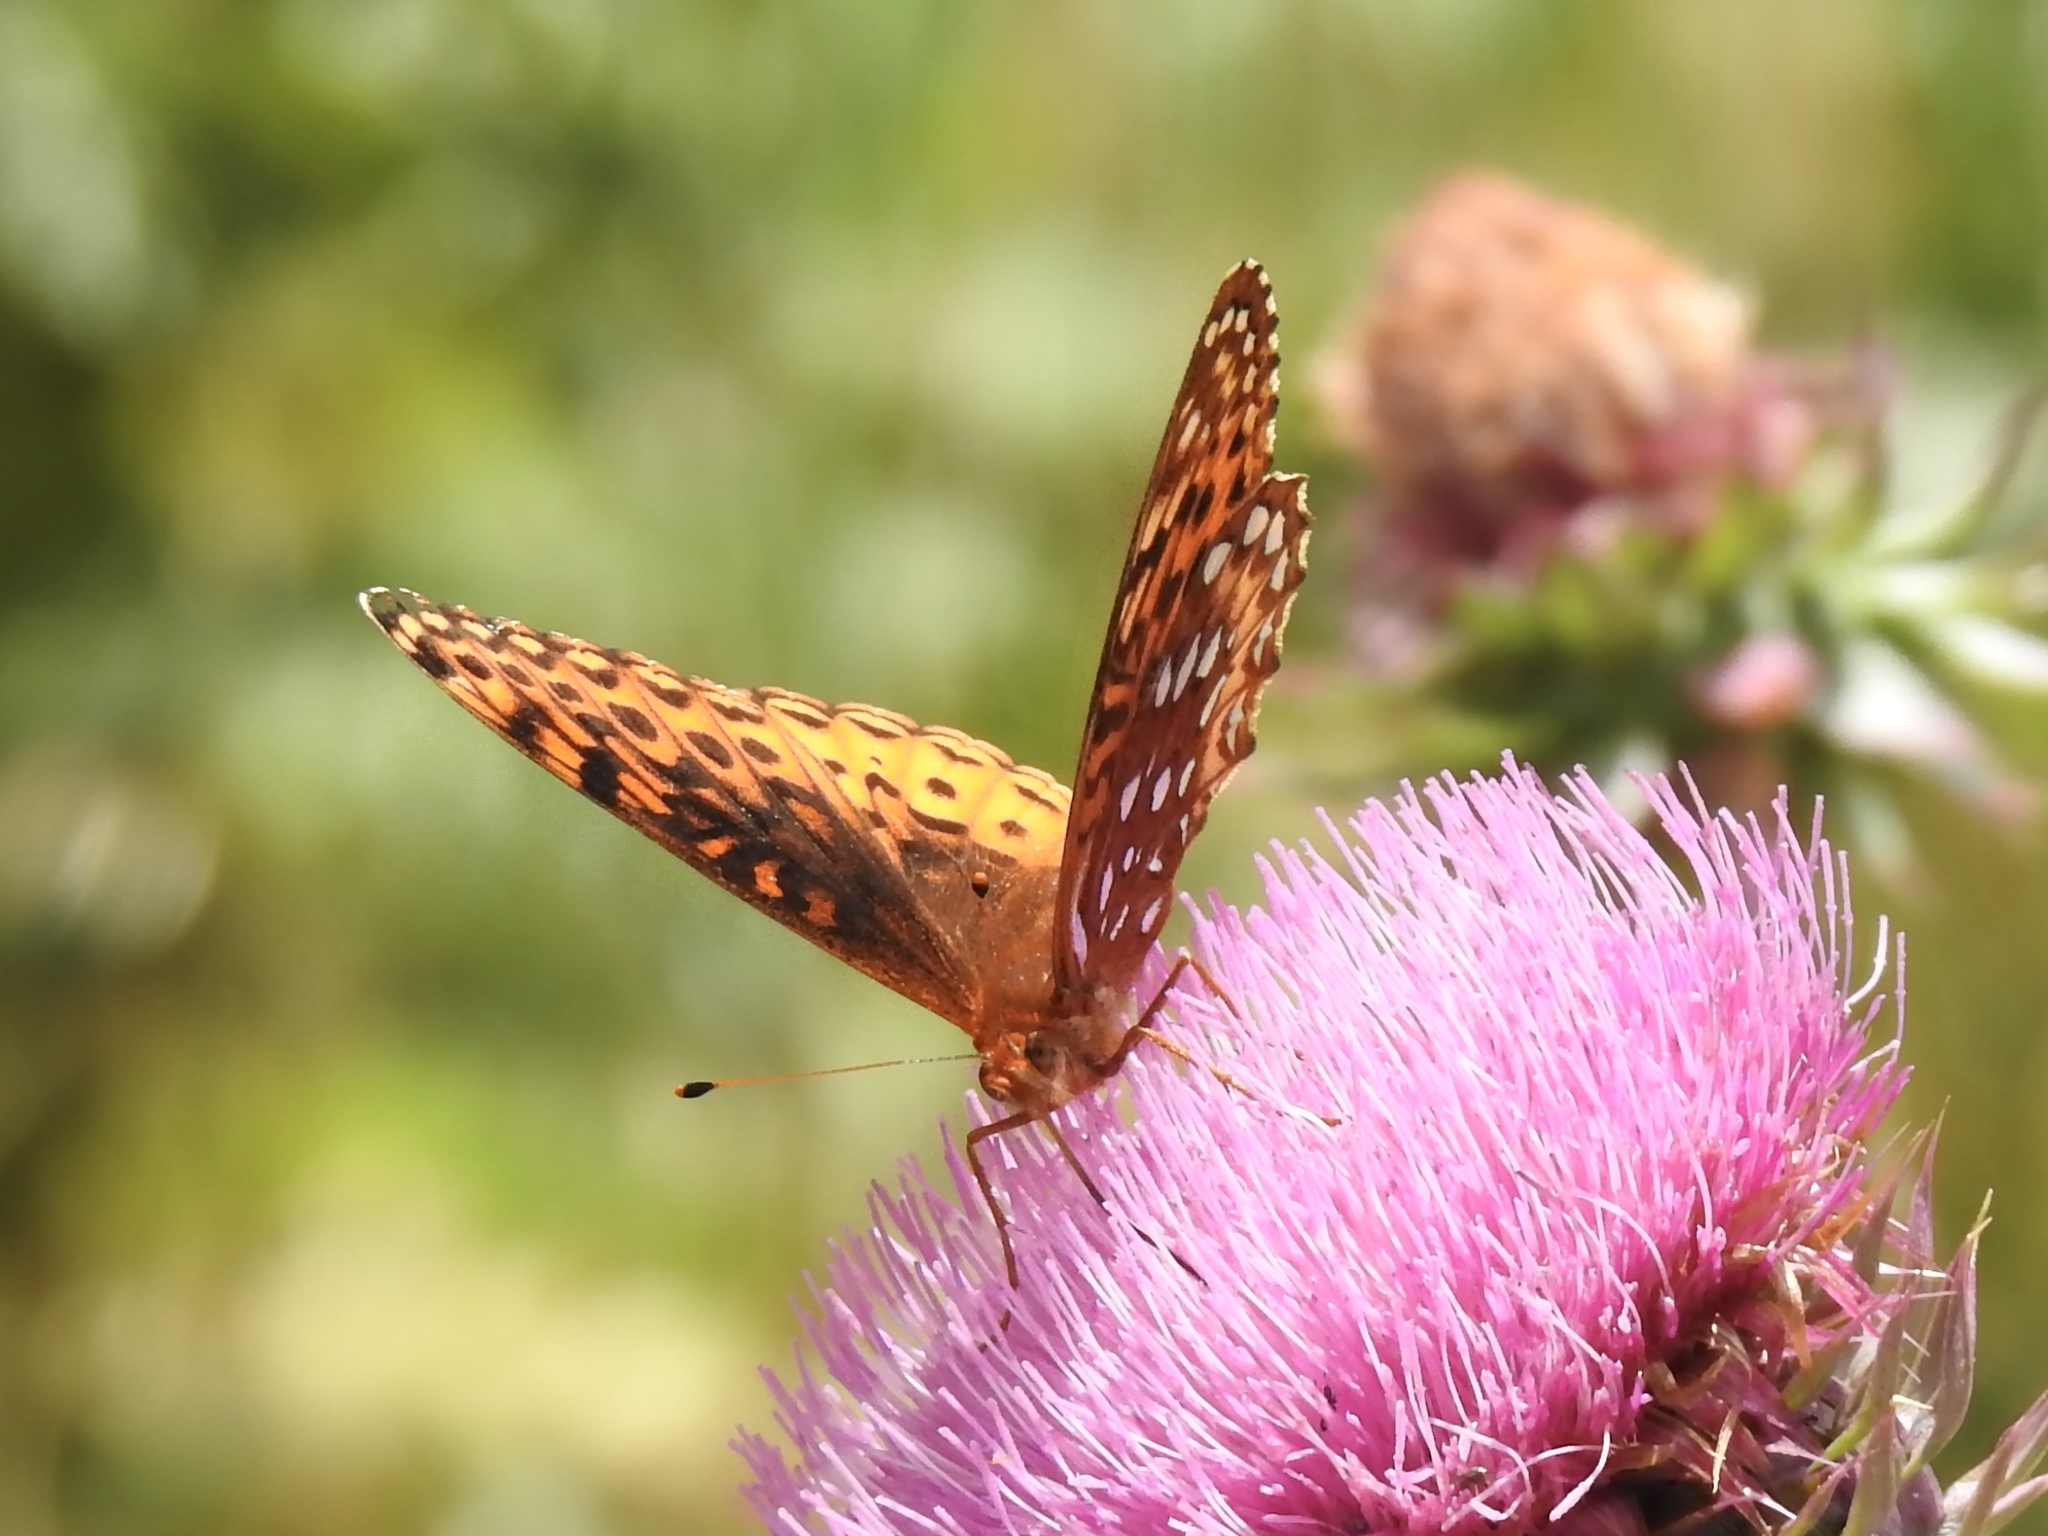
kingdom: Animalia
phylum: Arthropoda
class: Insecta
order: Lepidoptera
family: Nymphalidae
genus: Speyeria
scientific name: Speyeria atlantis
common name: Atlantis fritillary
